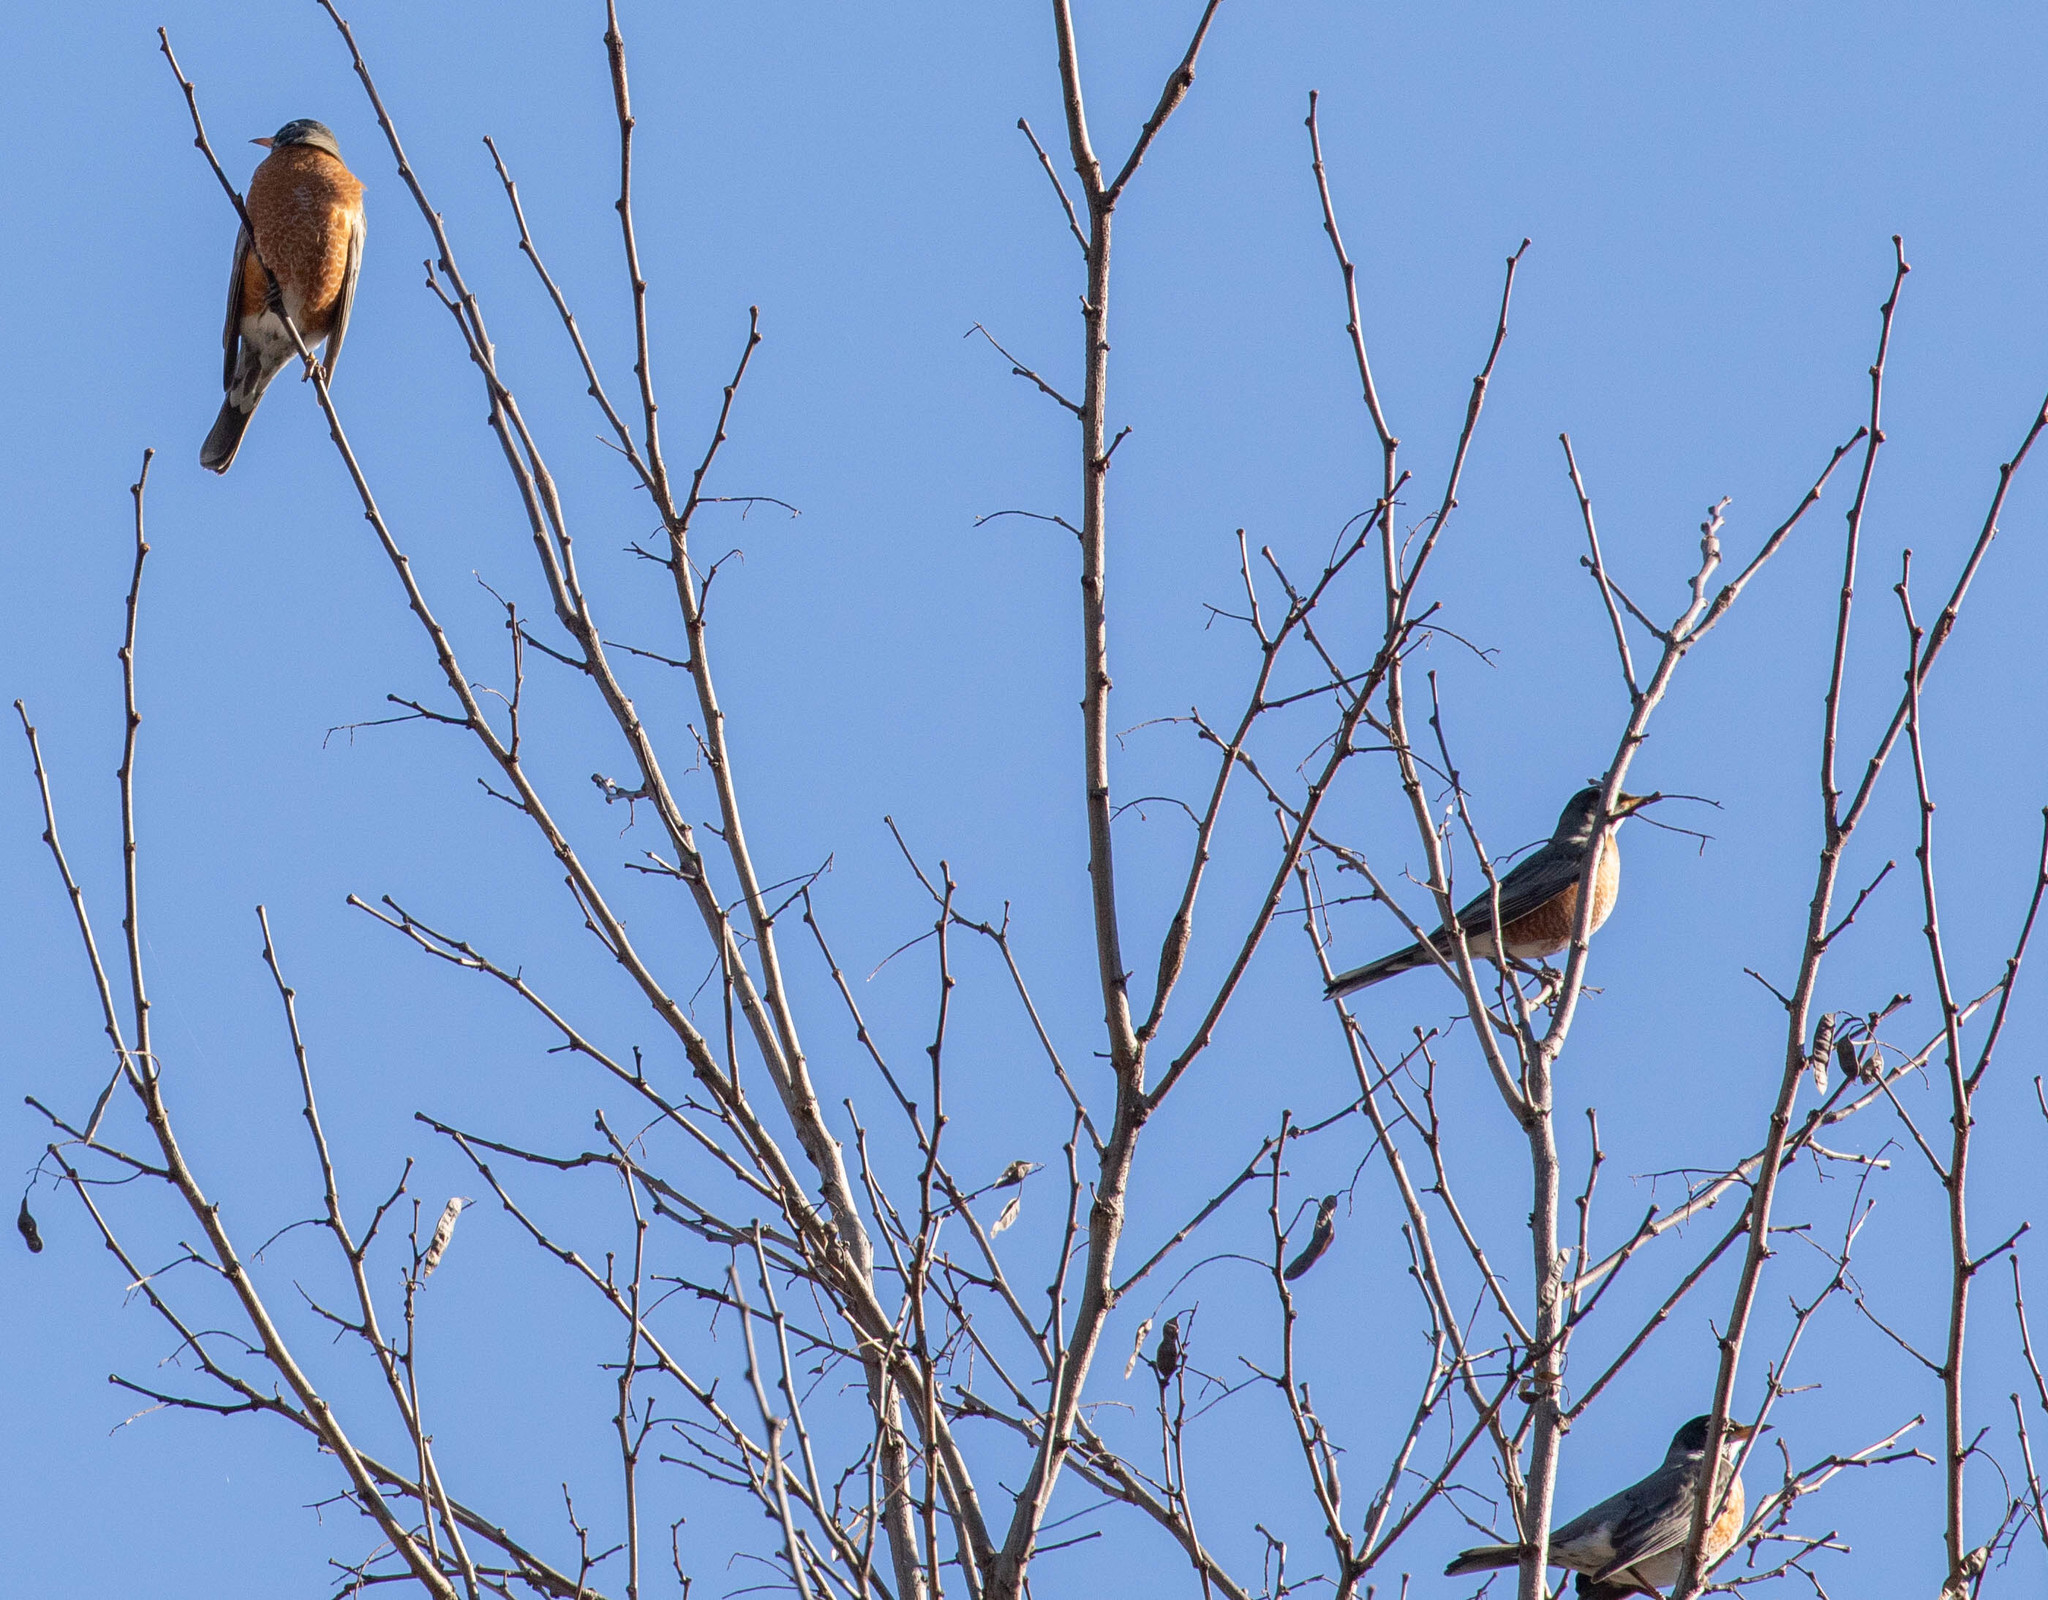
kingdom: Animalia
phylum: Chordata
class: Aves
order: Passeriformes
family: Turdidae
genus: Turdus
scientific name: Turdus migratorius
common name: American robin
